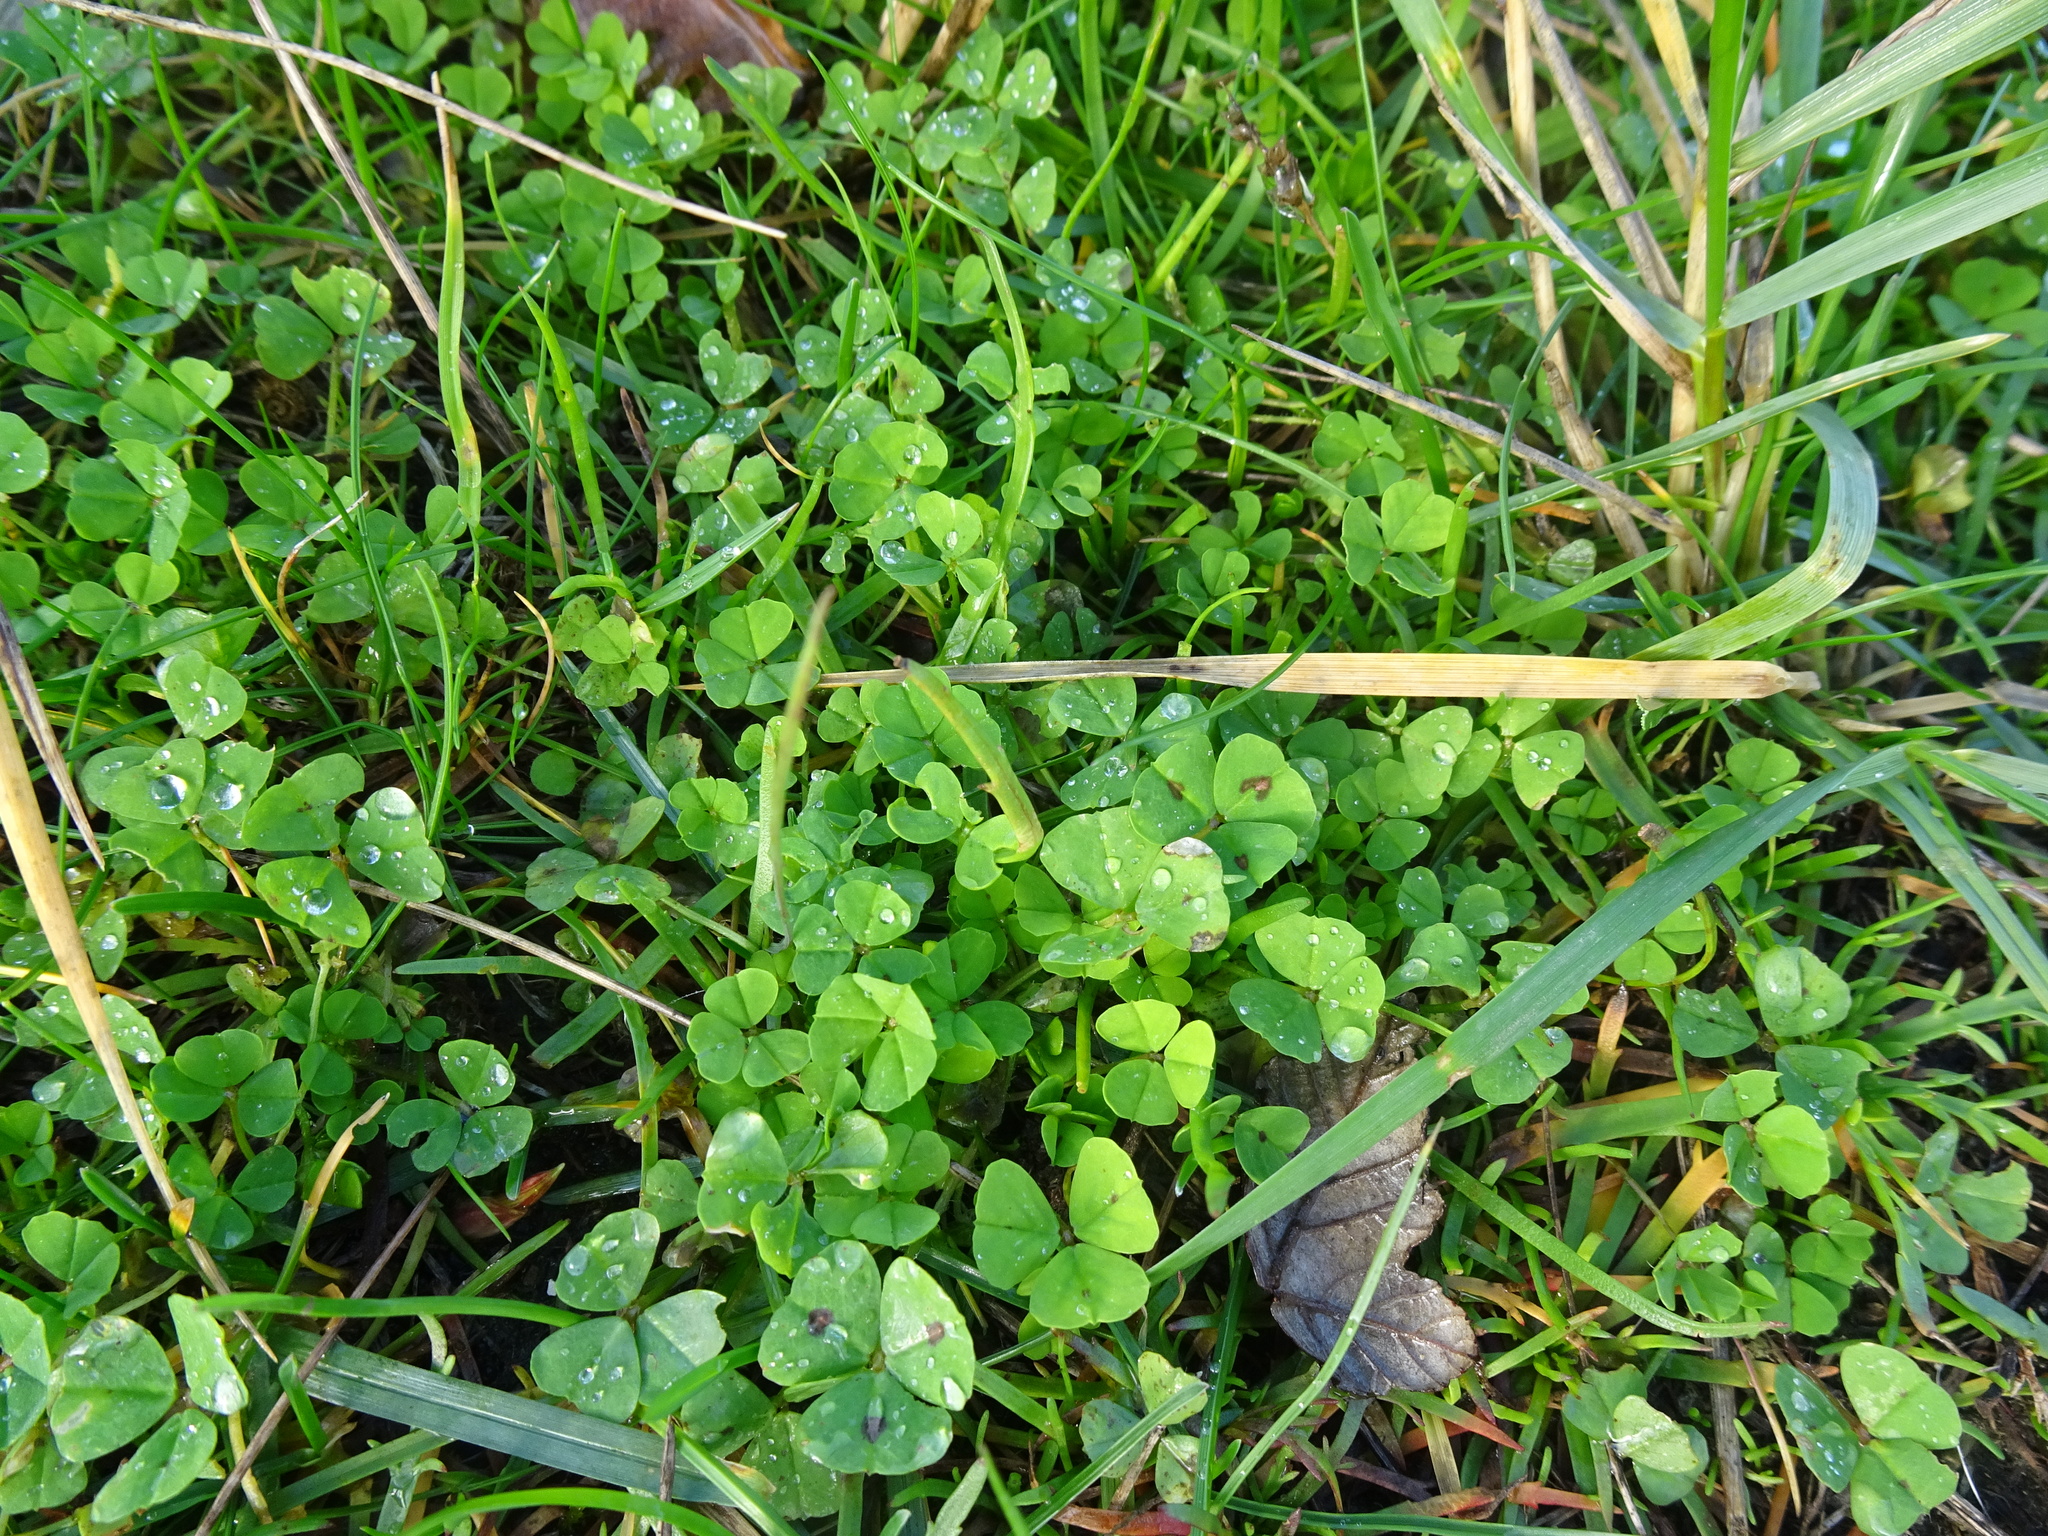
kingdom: Plantae
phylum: Tracheophyta
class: Magnoliopsida
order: Fabales
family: Fabaceae
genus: Medicago
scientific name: Medicago arabica
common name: Spotted medick
